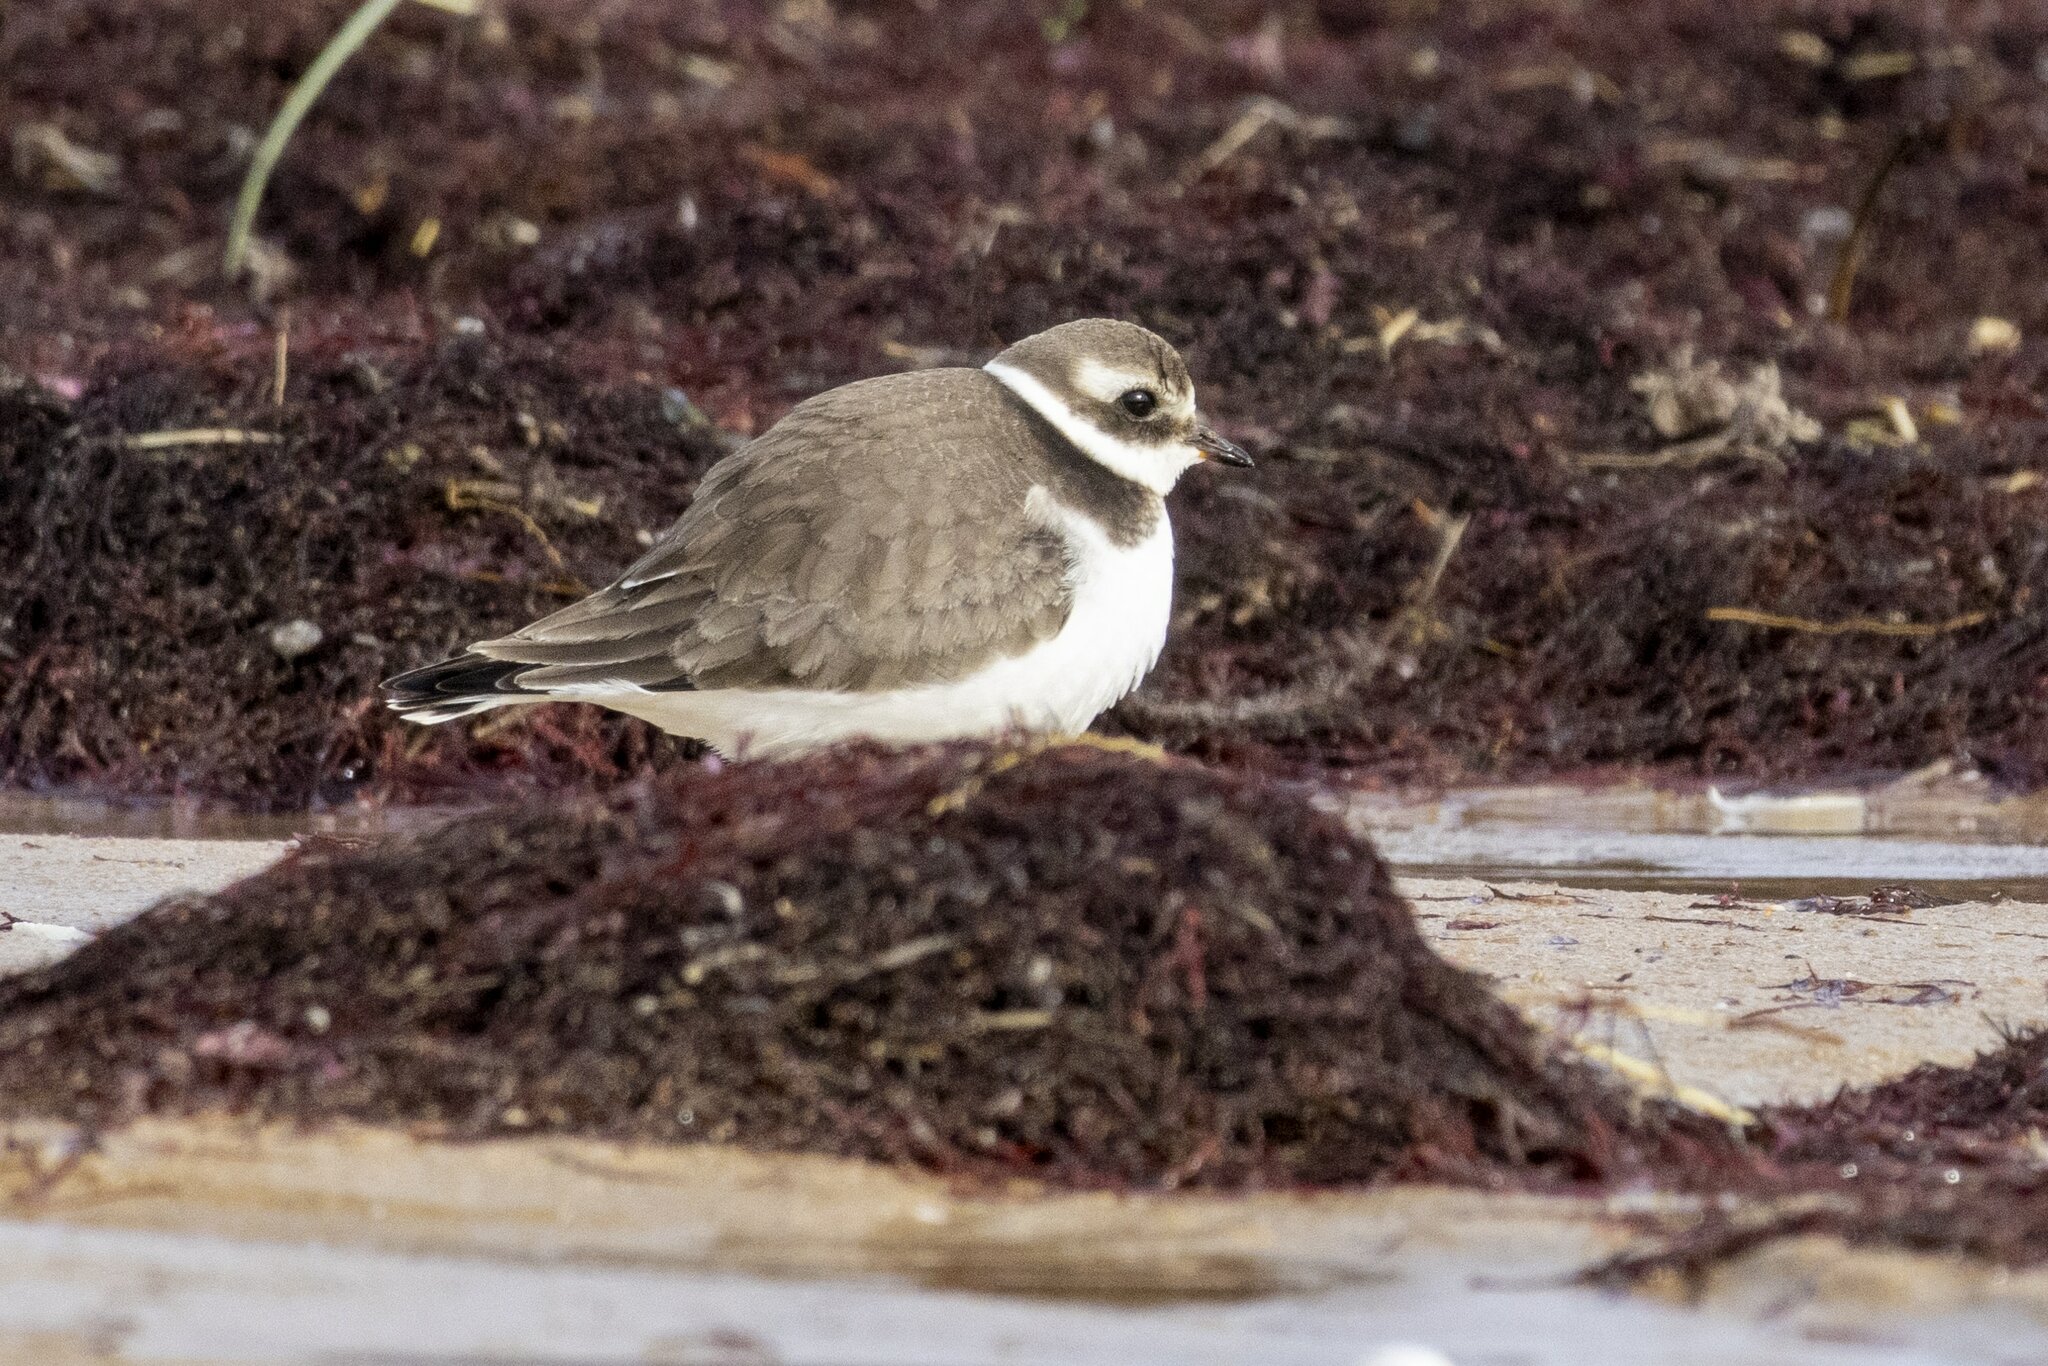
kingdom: Animalia
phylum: Chordata
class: Aves
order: Charadriiformes
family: Charadriidae
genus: Charadrius
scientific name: Charadrius hiaticula
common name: Common ringed plover
